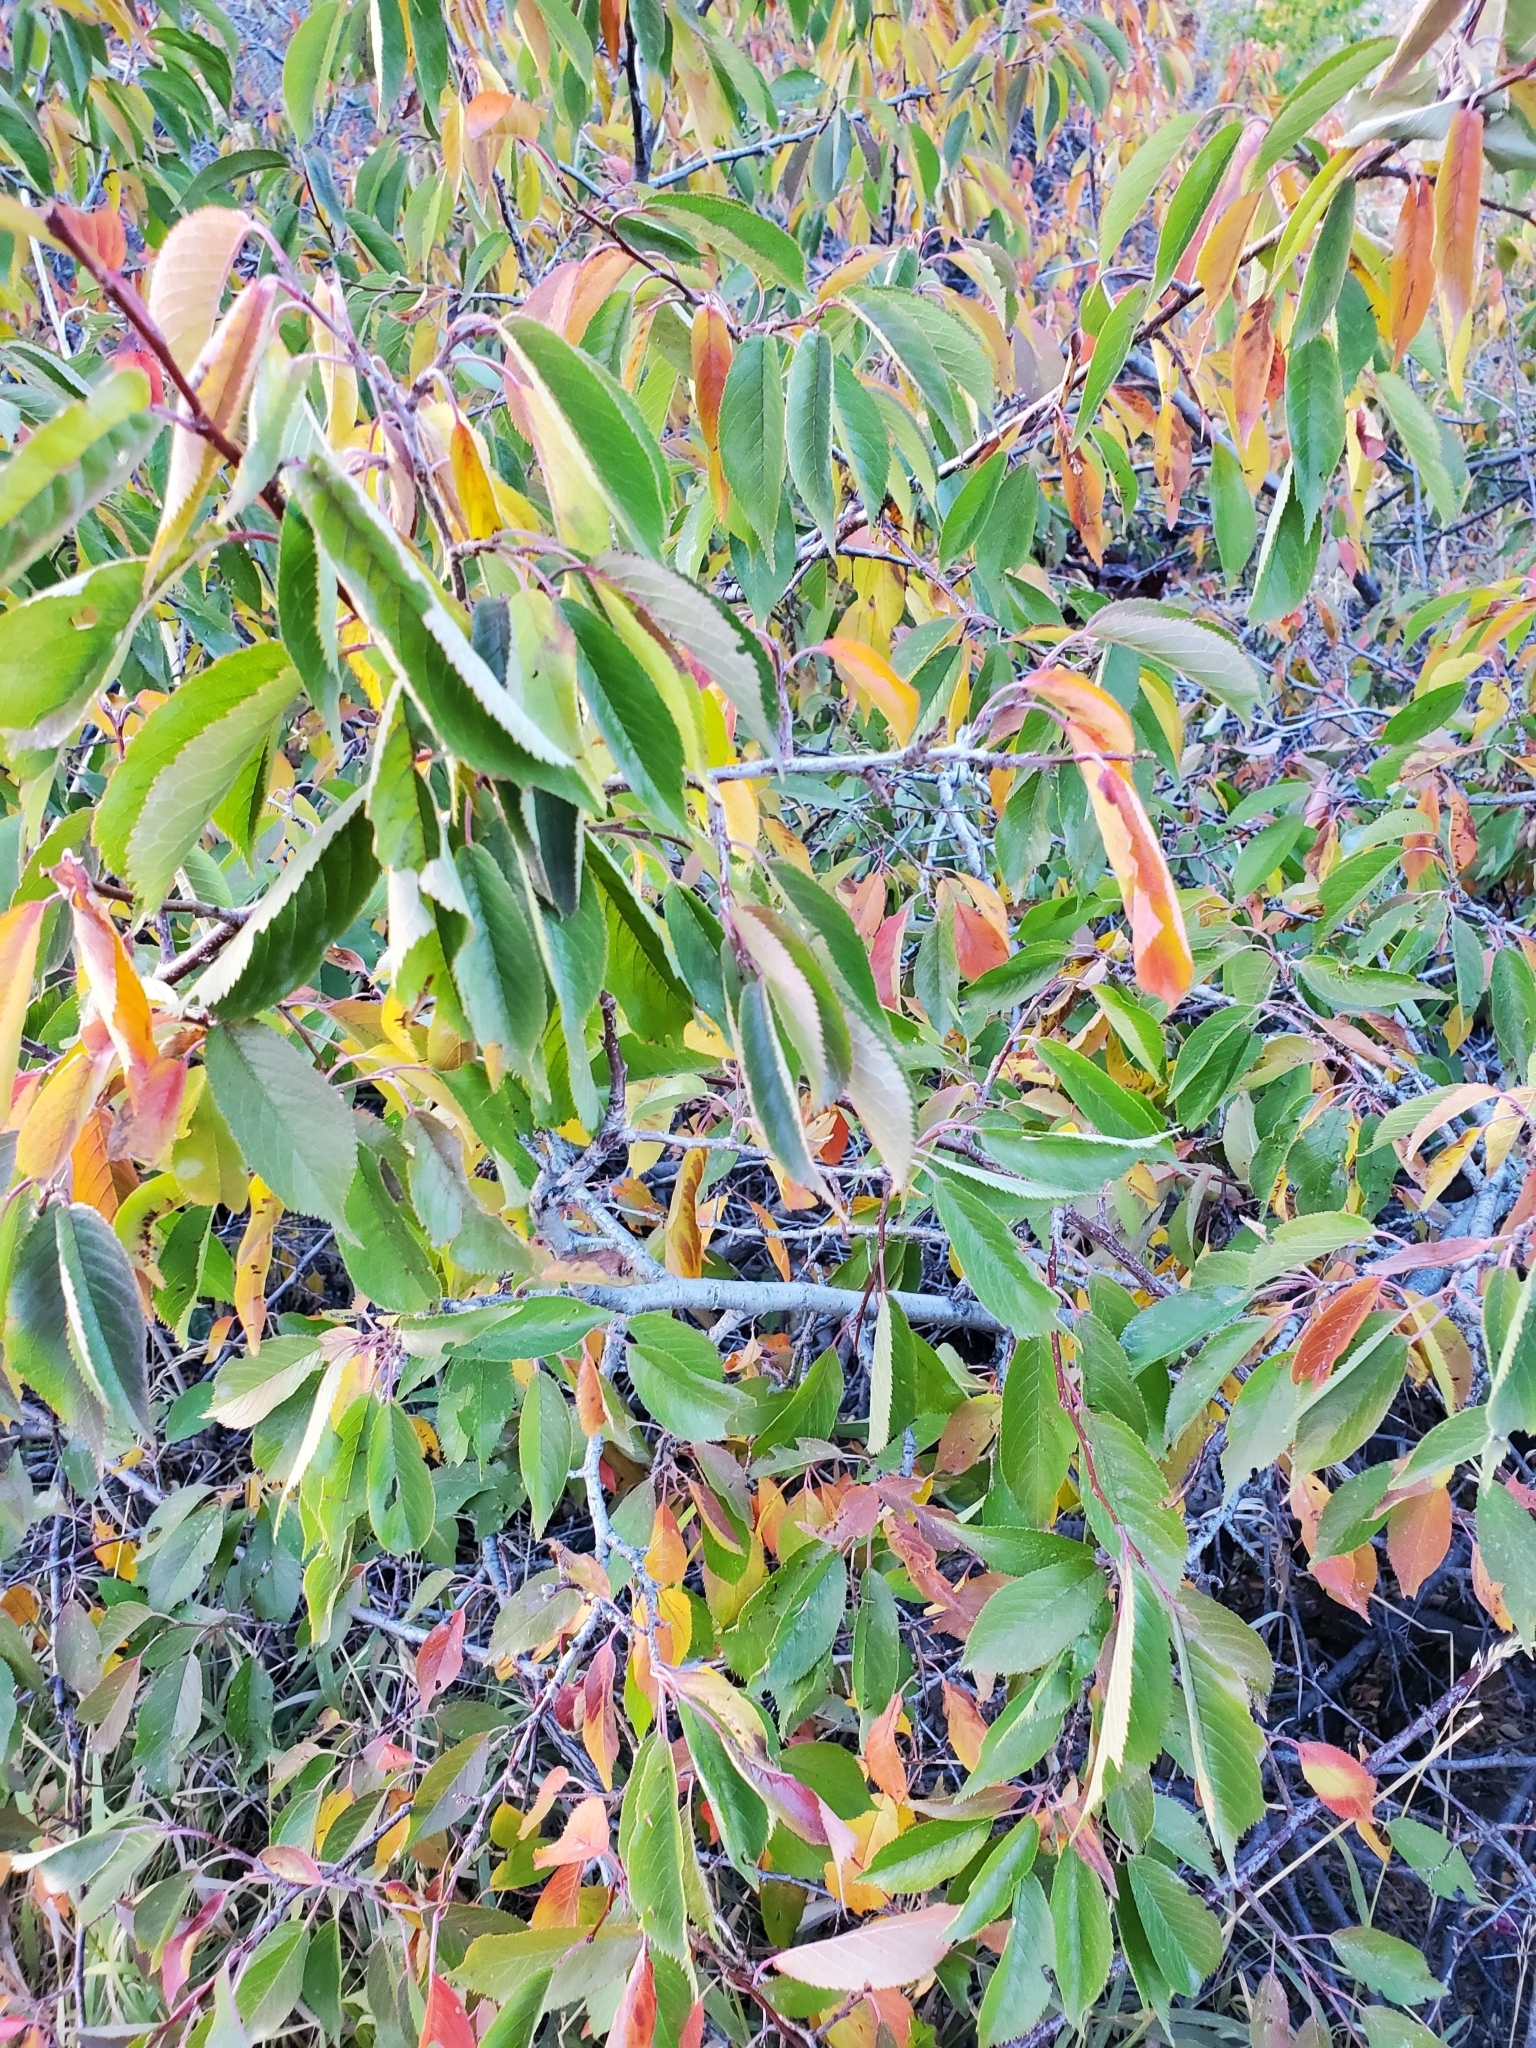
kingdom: Plantae
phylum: Tracheophyta
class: Magnoliopsida
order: Rosales
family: Rosaceae
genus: Prunus
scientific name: Prunus americana
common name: American plum
